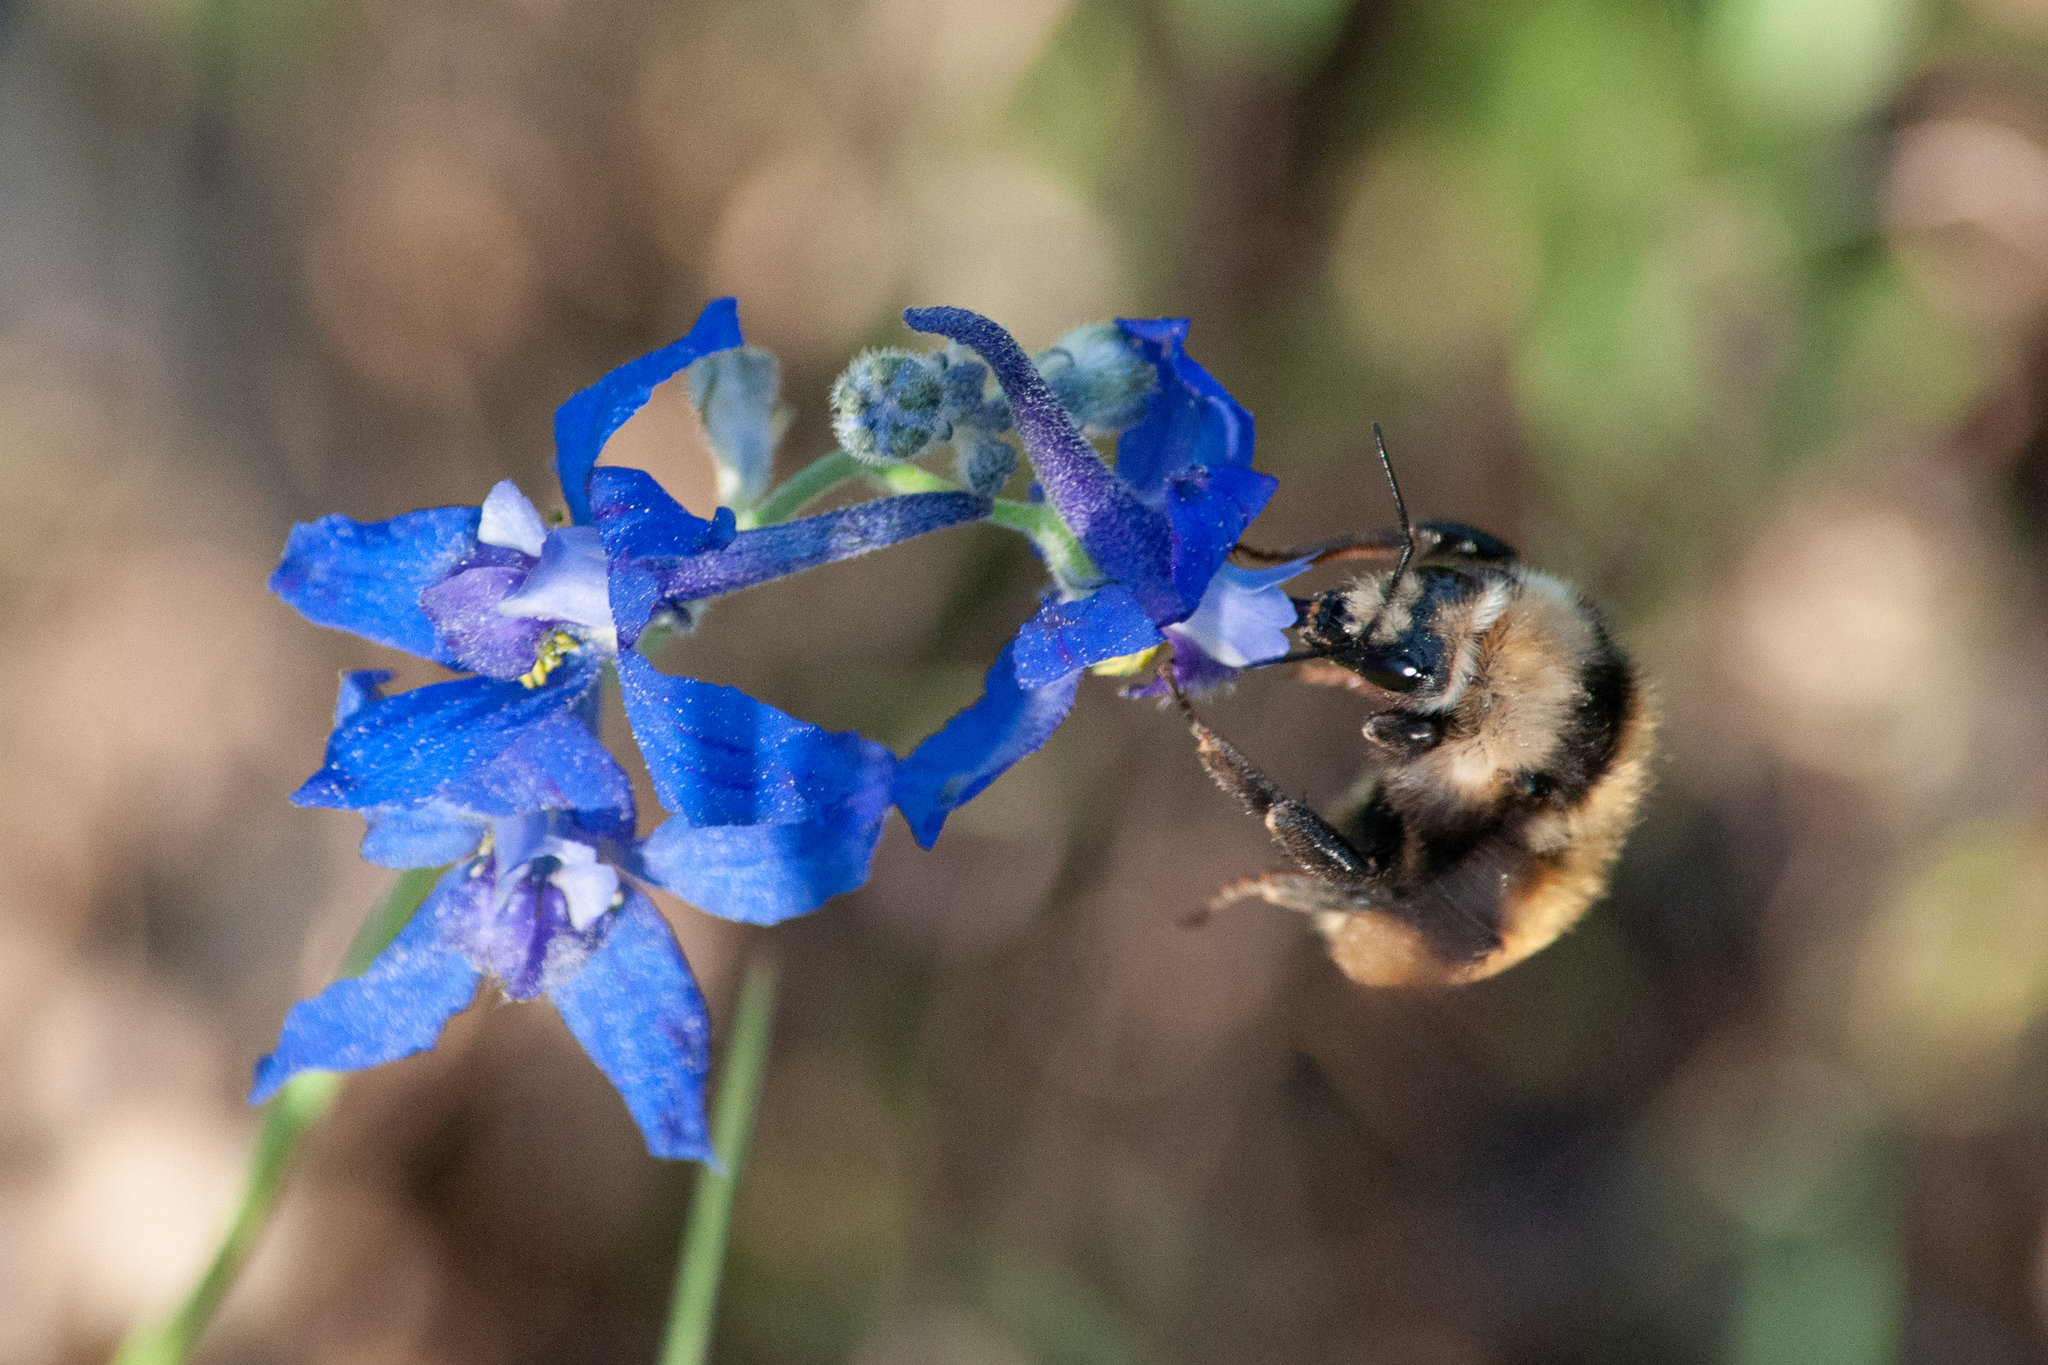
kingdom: Animalia
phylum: Arthropoda
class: Insecta
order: Hymenoptera
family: Apidae
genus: Bombus
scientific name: Bombus appositus
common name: White-shouldered bumble bee
